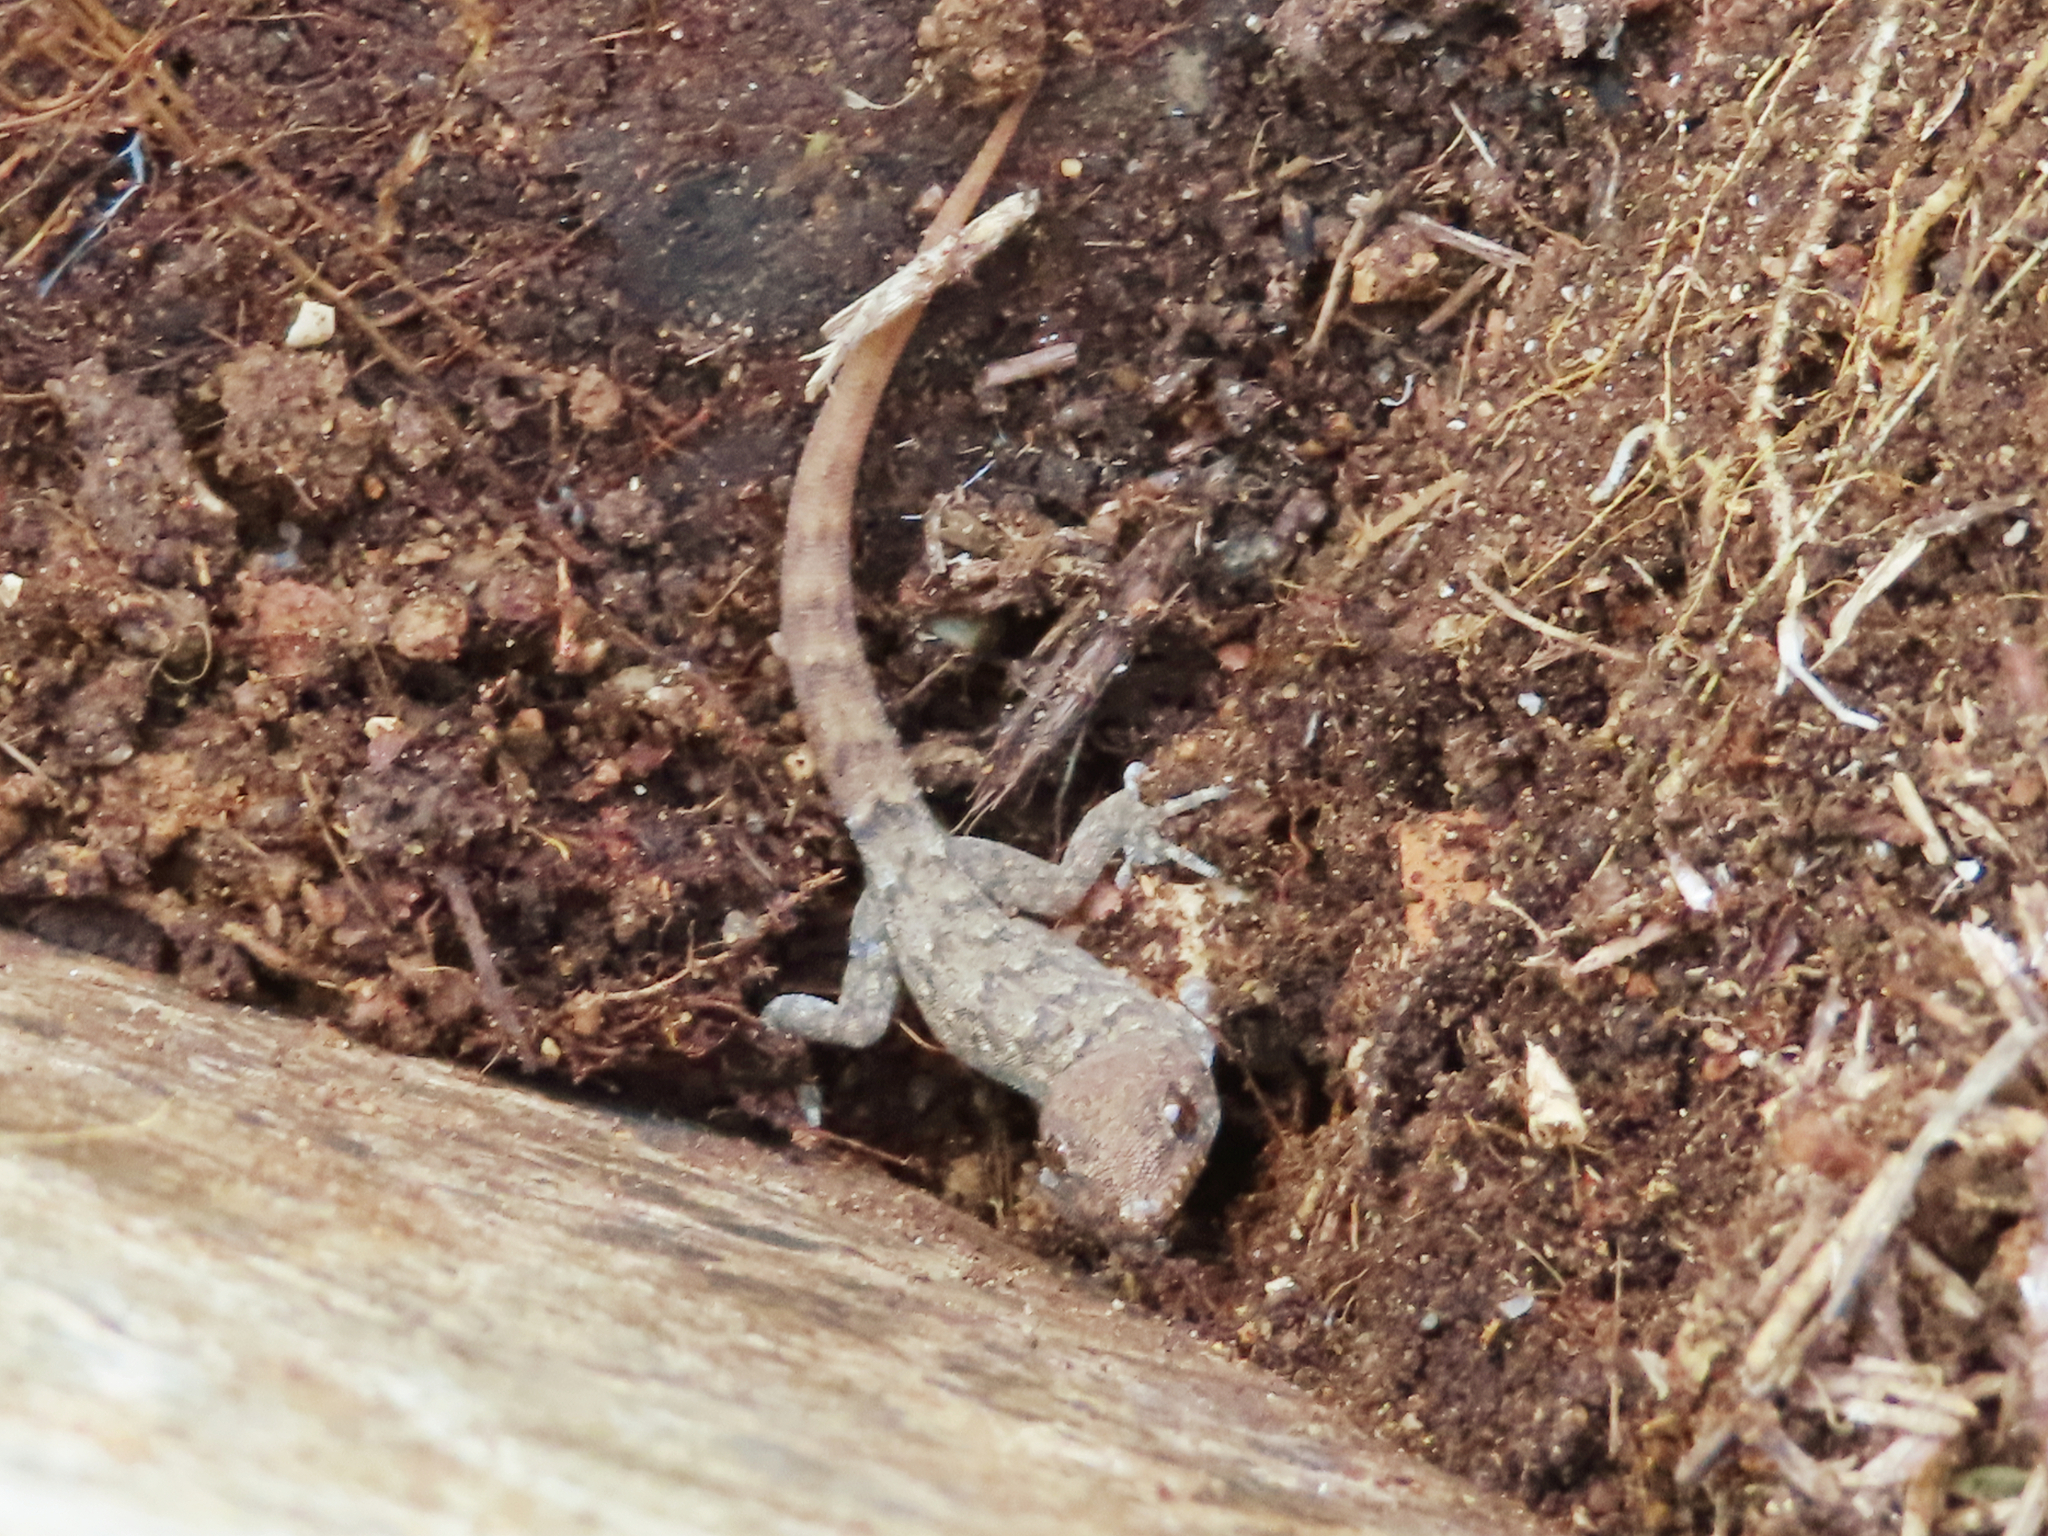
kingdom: Animalia
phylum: Chordata
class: Squamata
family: Gekkonidae
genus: Mediodactylus
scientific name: Mediodactylus oertzeni
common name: Mediterranean thin-toed gecko
